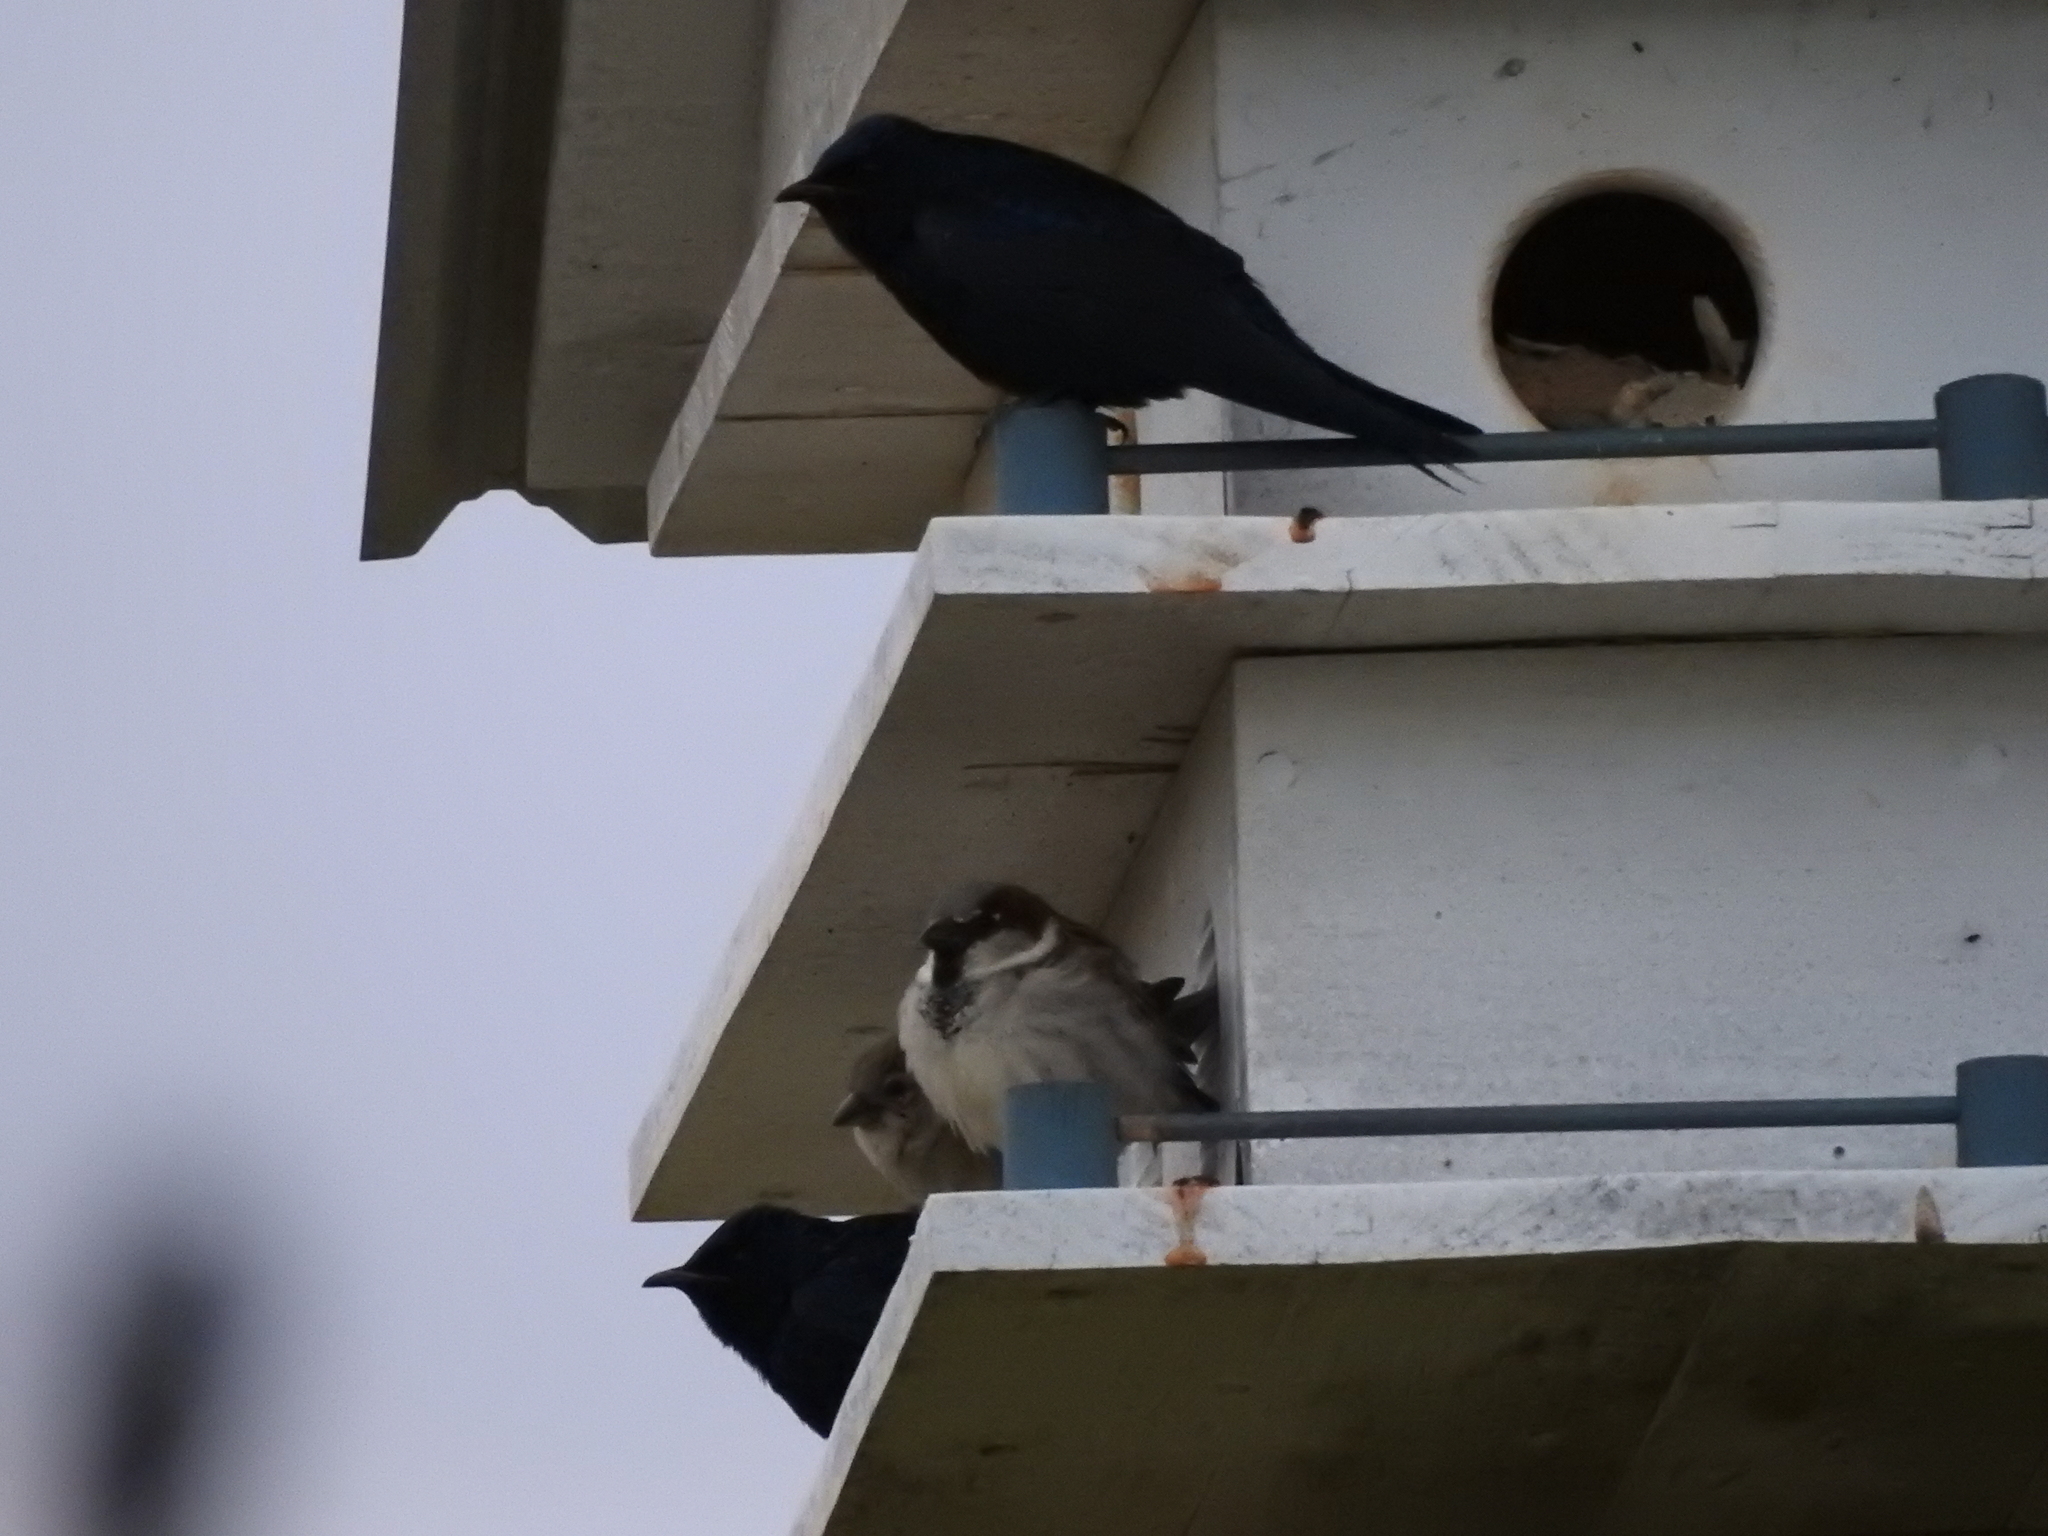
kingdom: Animalia
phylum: Chordata
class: Aves
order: Passeriformes
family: Hirundinidae
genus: Progne
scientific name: Progne subis
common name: Purple martin
